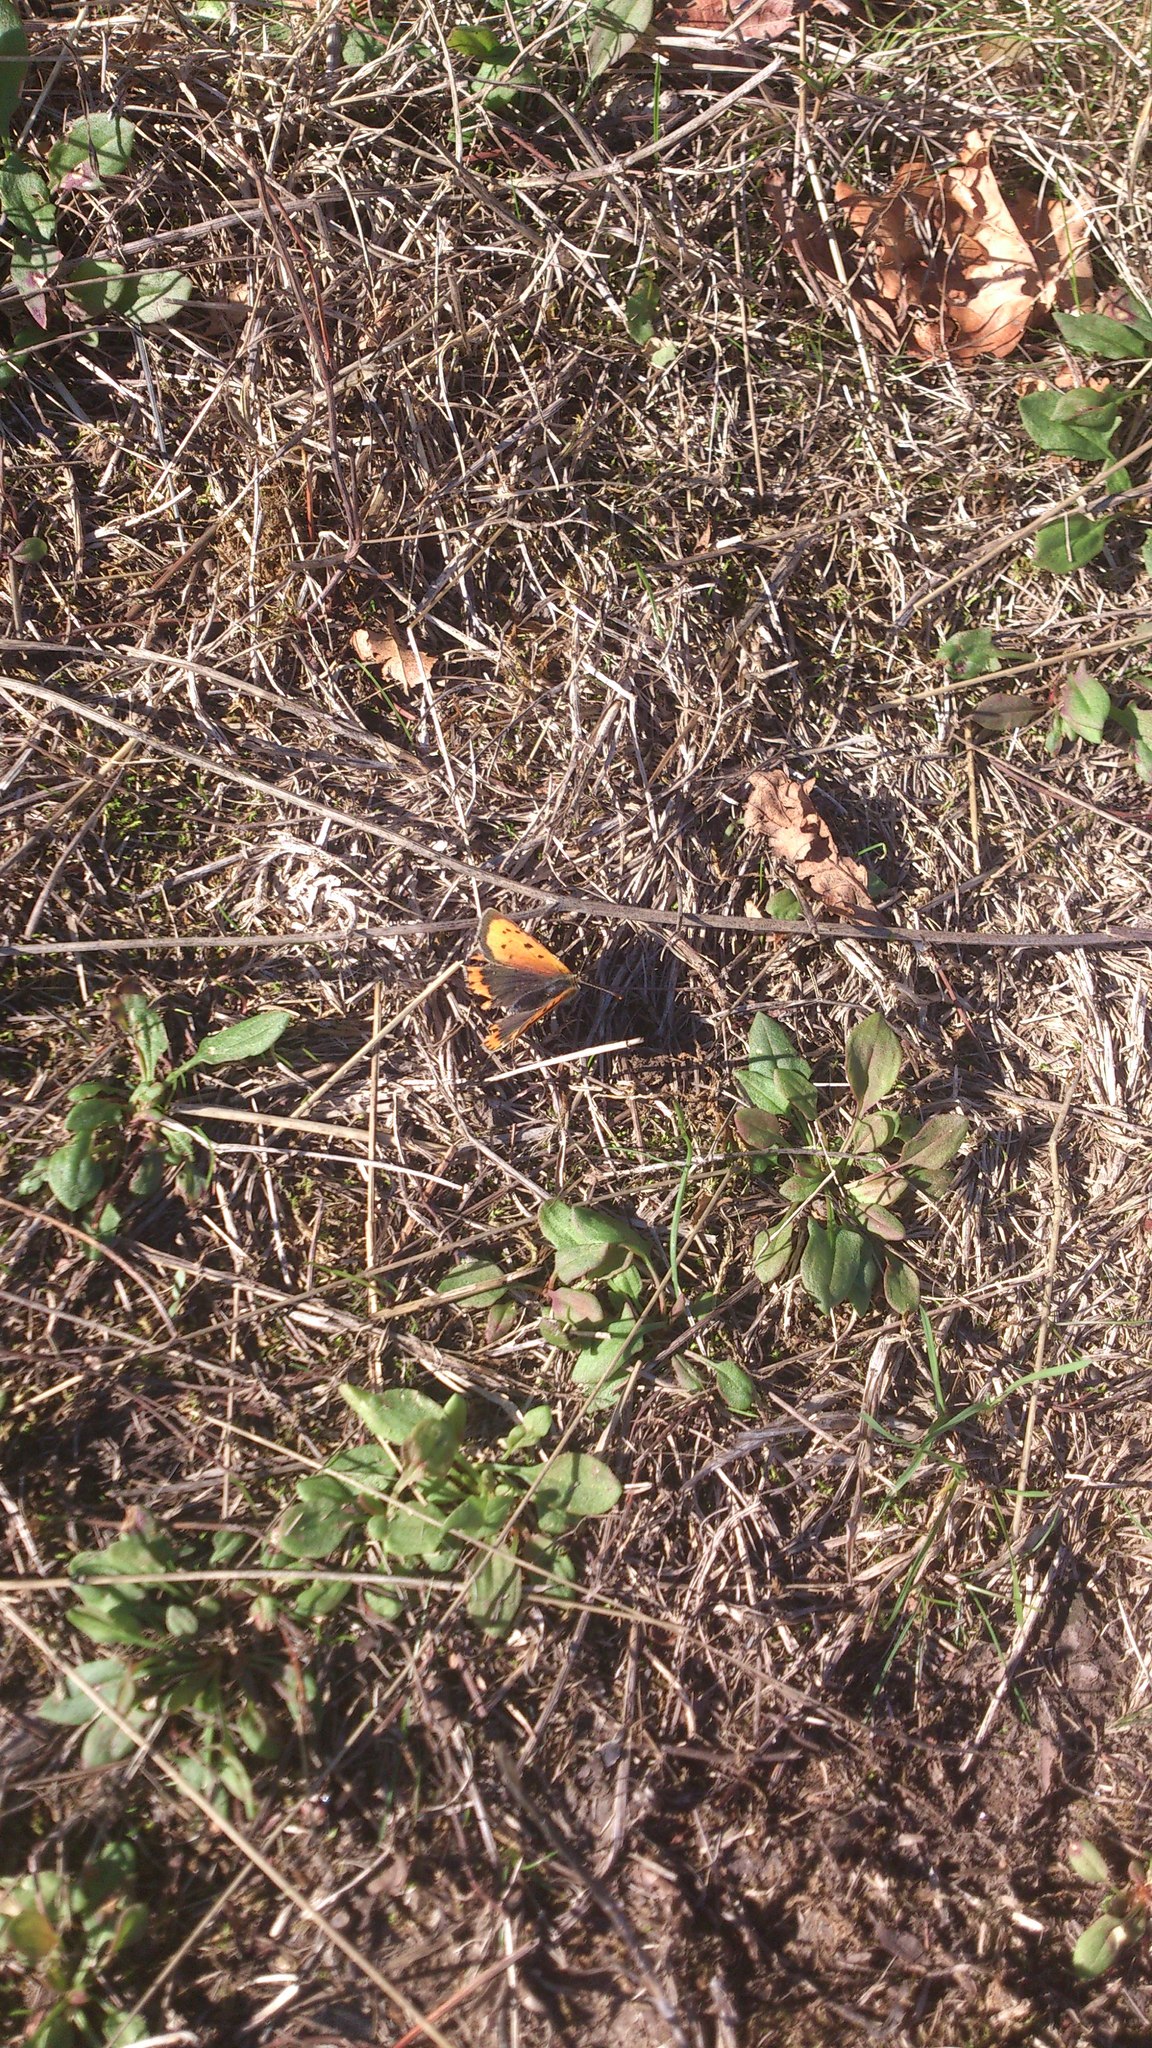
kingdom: Animalia
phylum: Arthropoda
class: Insecta
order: Lepidoptera
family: Lycaenidae
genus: Lycaena
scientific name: Lycaena phlaeas
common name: Small copper
